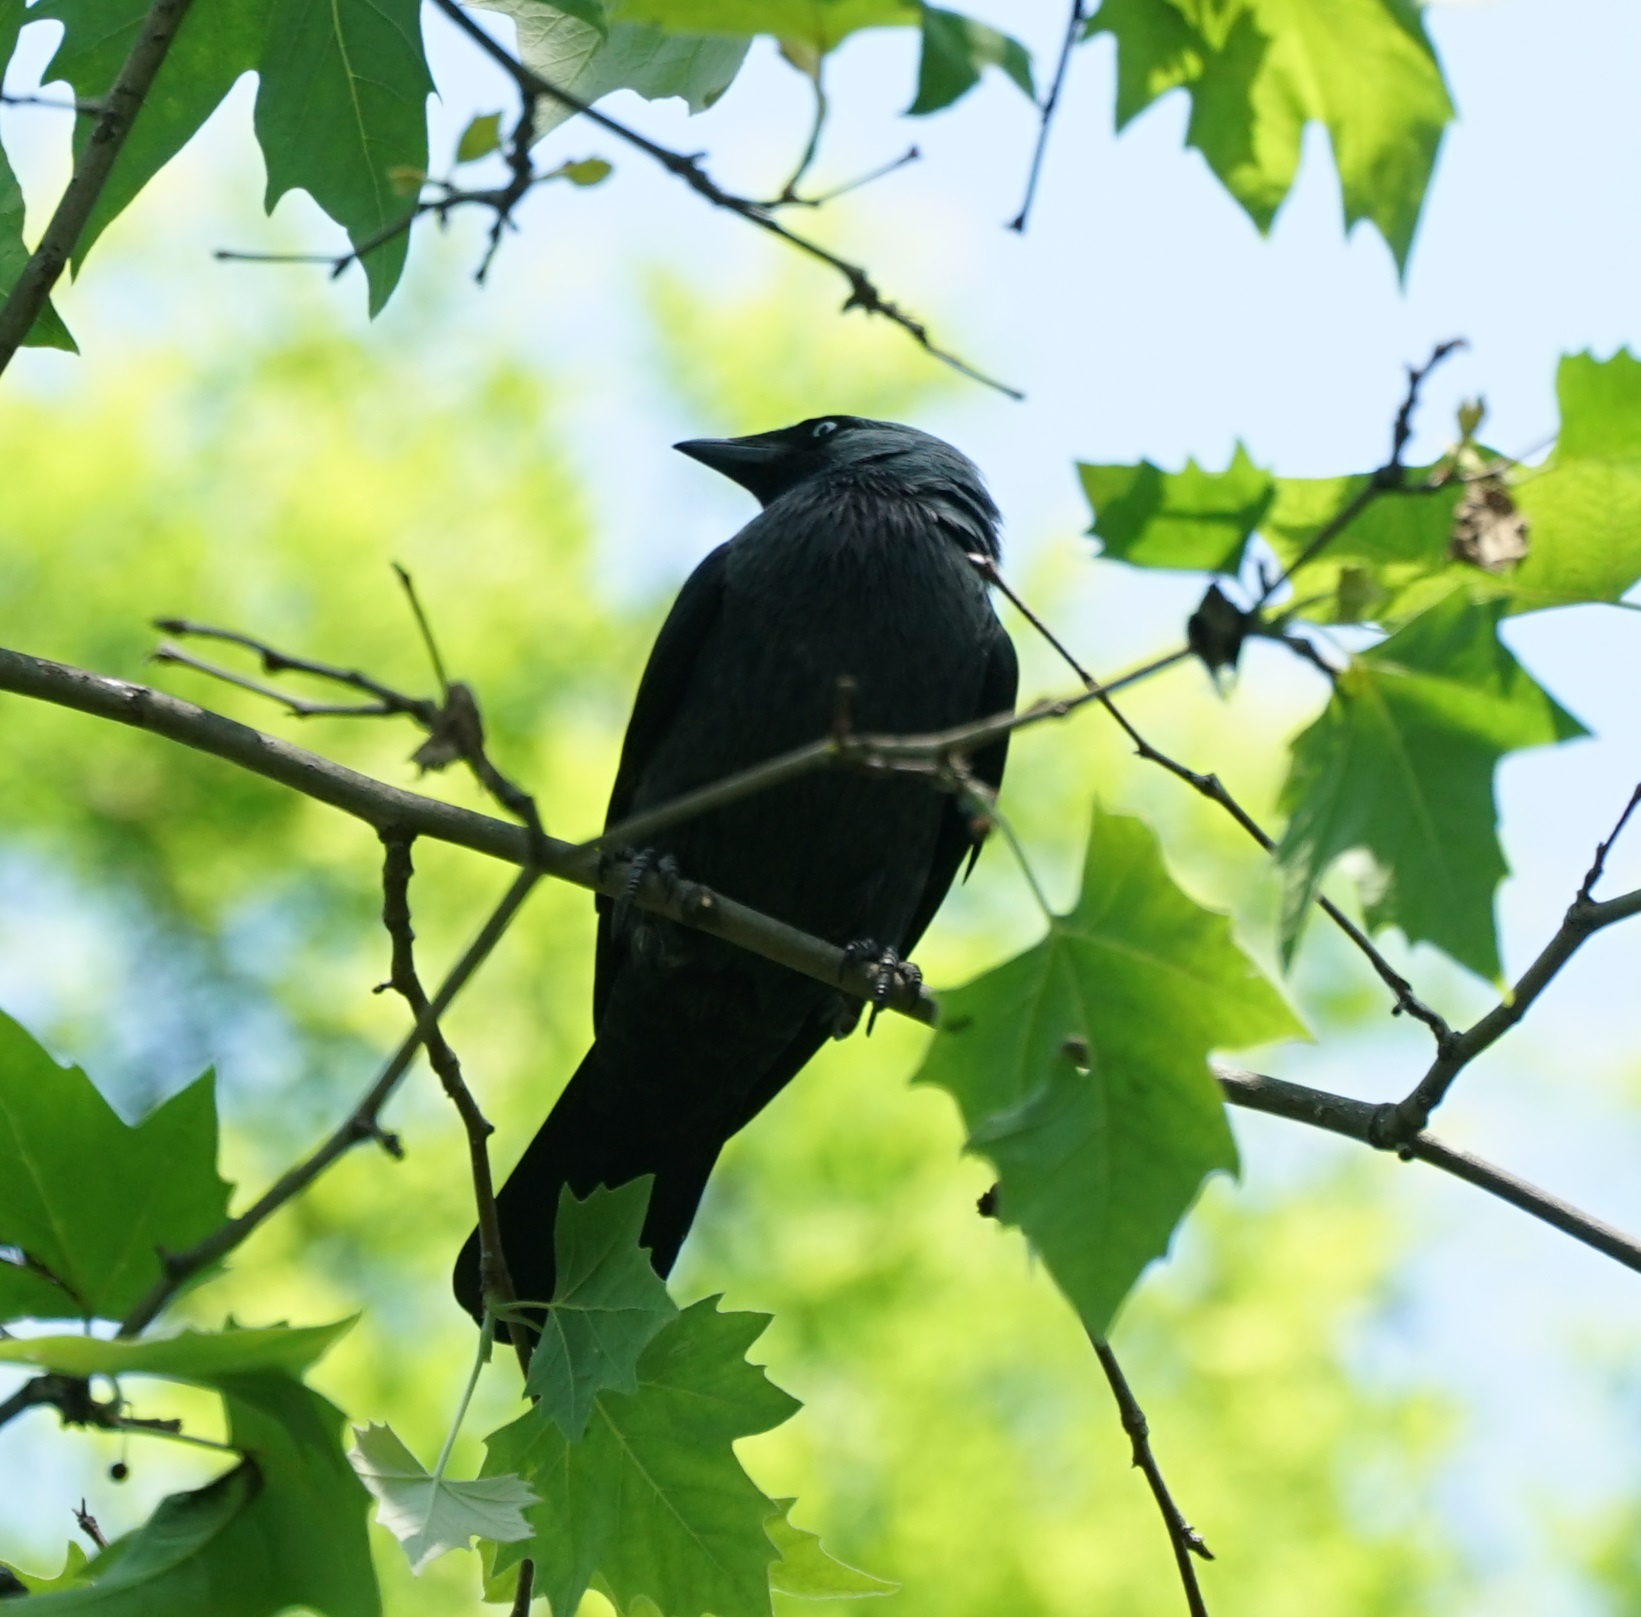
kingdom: Animalia
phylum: Chordata
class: Aves
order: Passeriformes
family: Corvidae
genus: Coloeus
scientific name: Coloeus monedula
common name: Western jackdaw
